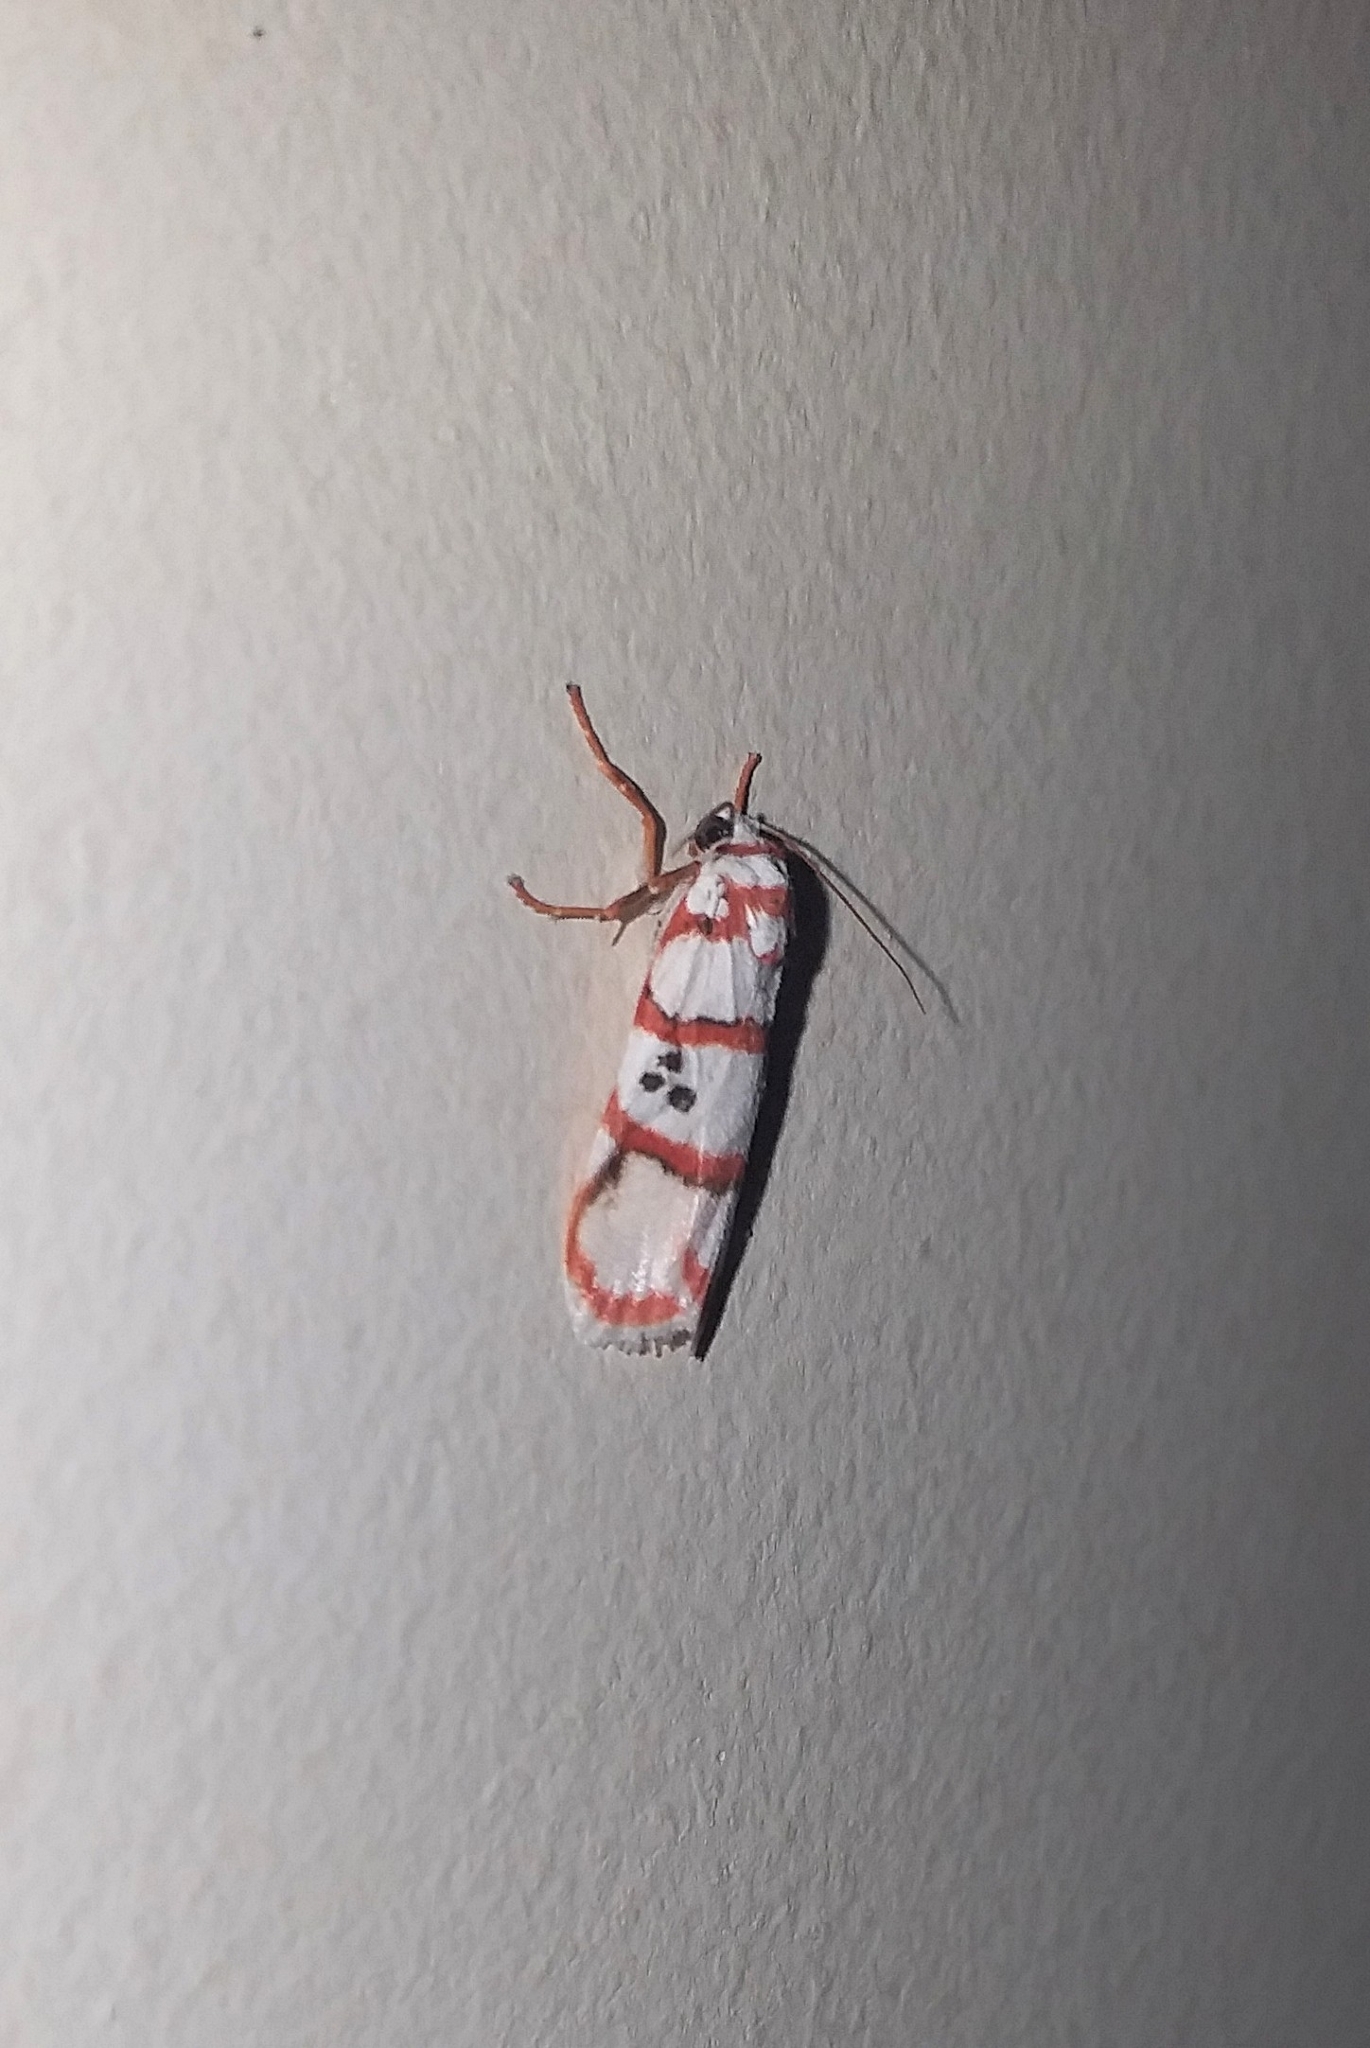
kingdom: Animalia
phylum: Arthropoda
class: Insecta
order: Lepidoptera
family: Erebidae
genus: Cyana
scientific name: Cyana peregrina
